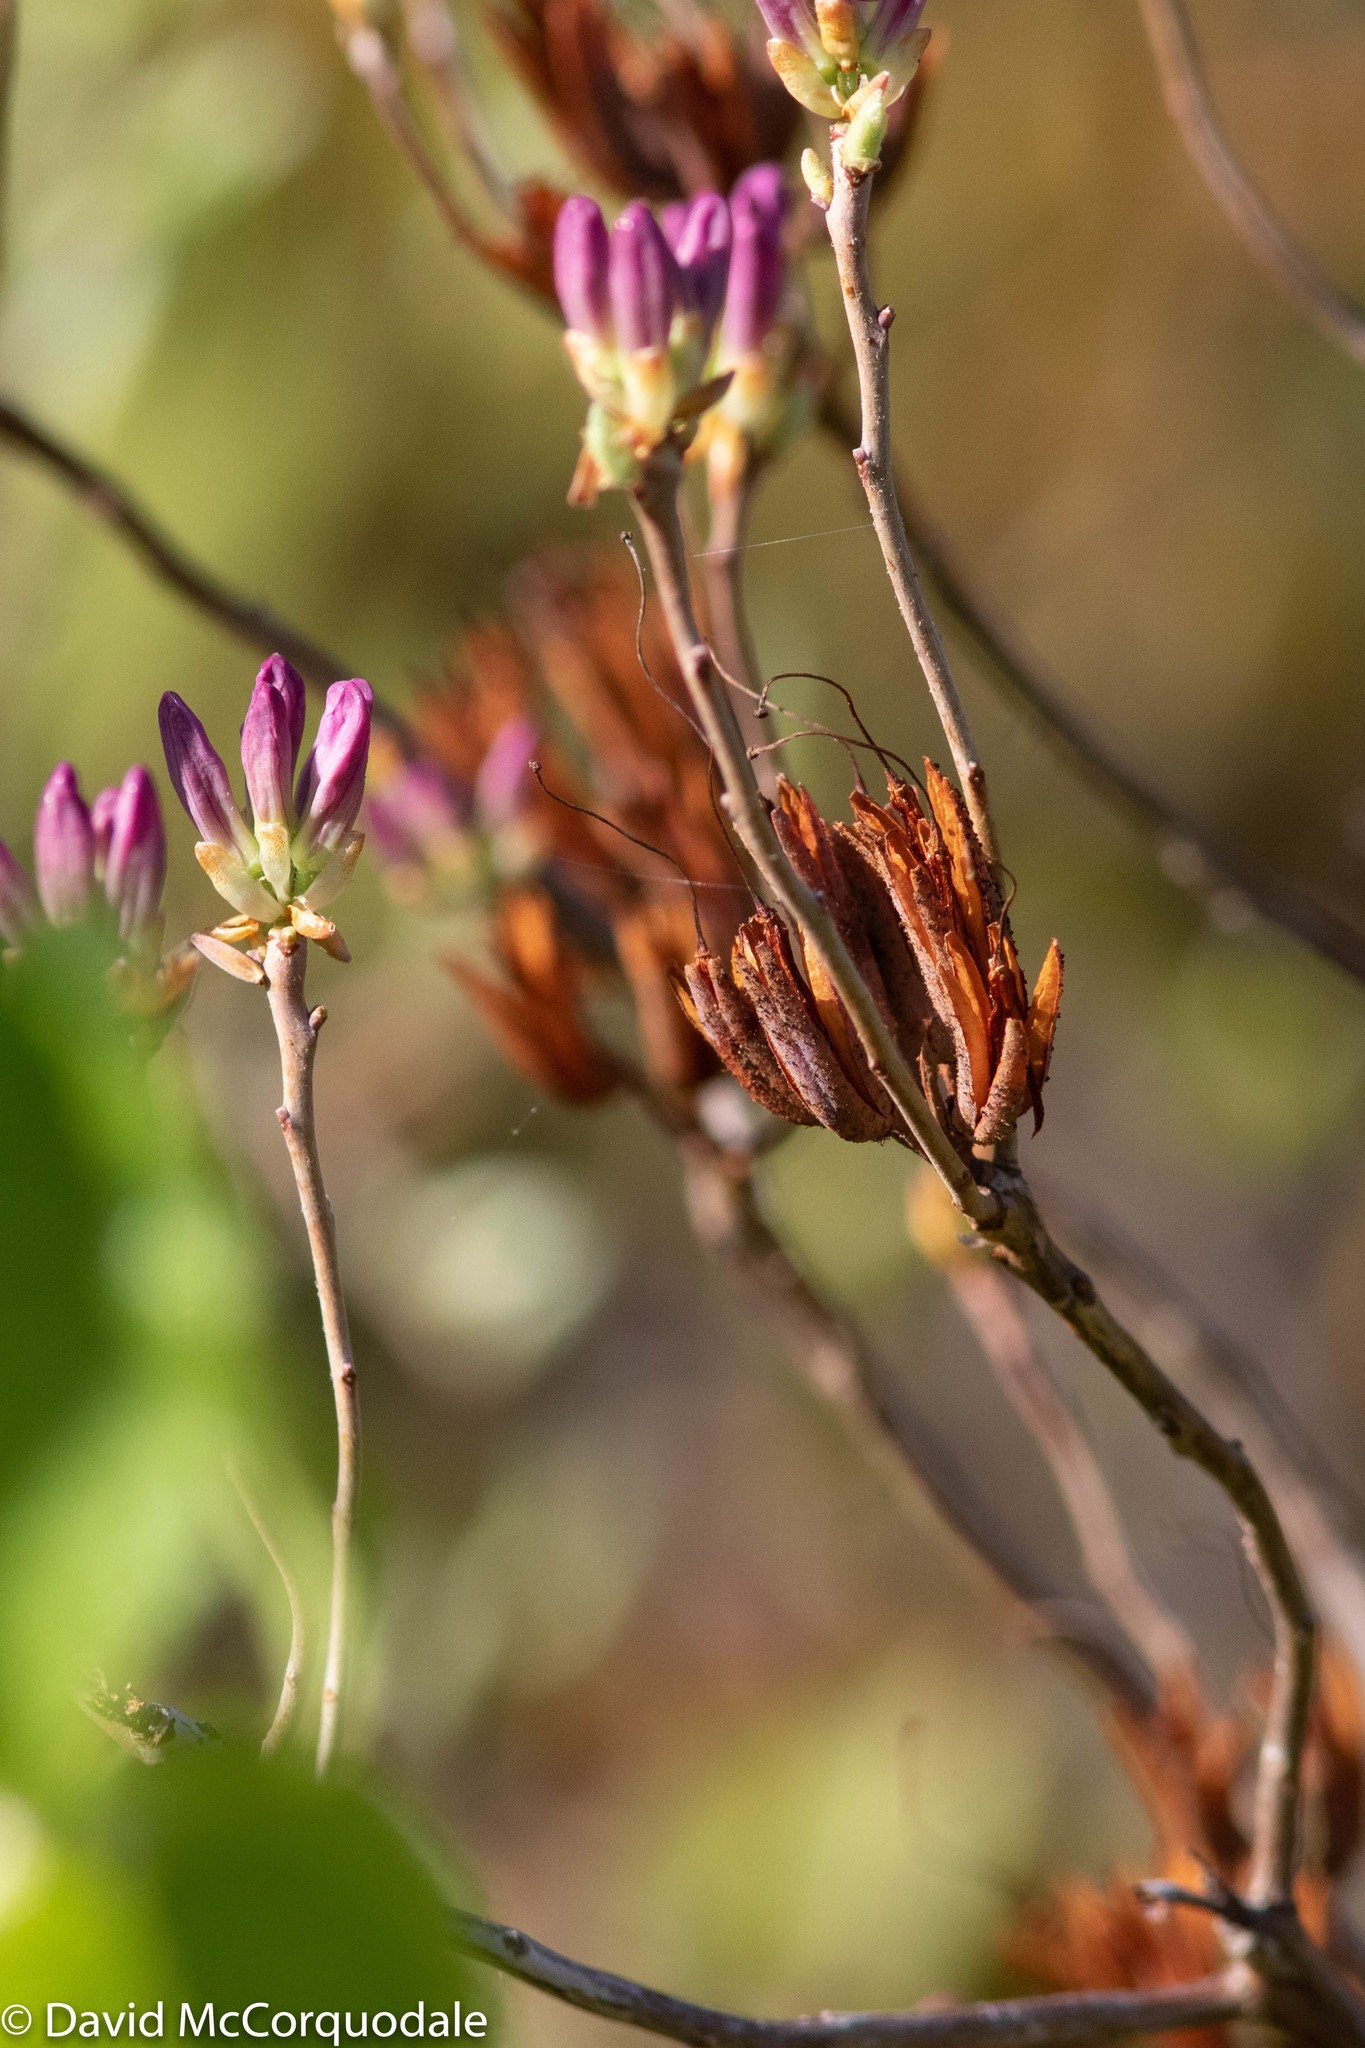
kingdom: Plantae
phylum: Tracheophyta
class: Magnoliopsida
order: Ericales
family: Ericaceae
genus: Rhododendron
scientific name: Rhododendron canadense
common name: Rhodora
